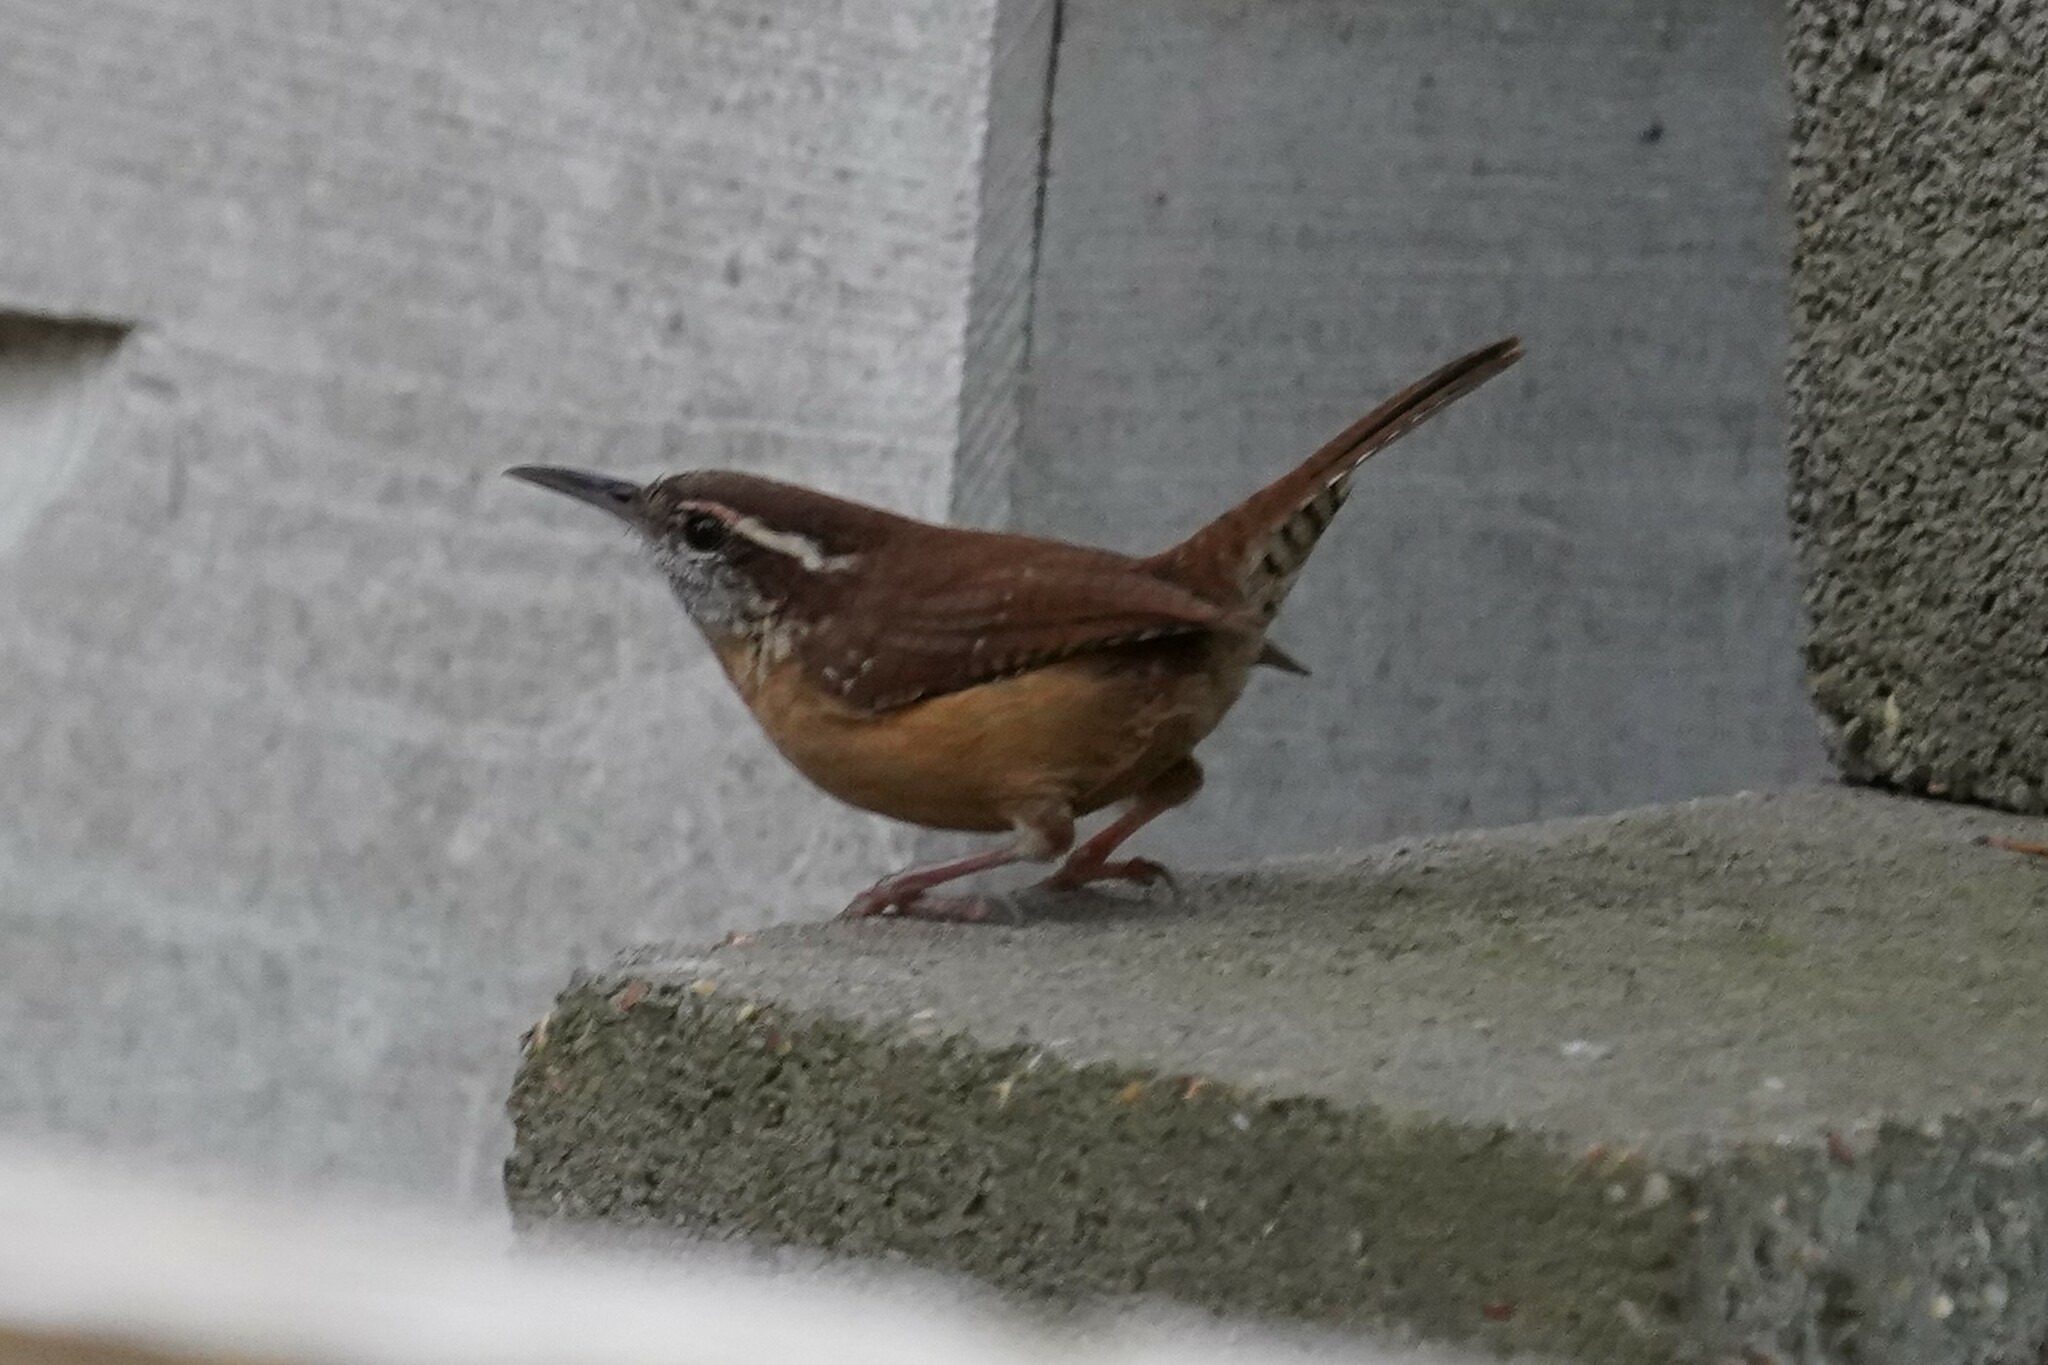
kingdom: Animalia
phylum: Chordata
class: Aves
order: Passeriformes
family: Troglodytidae
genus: Thryothorus
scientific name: Thryothorus ludovicianus
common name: Carolina wren
